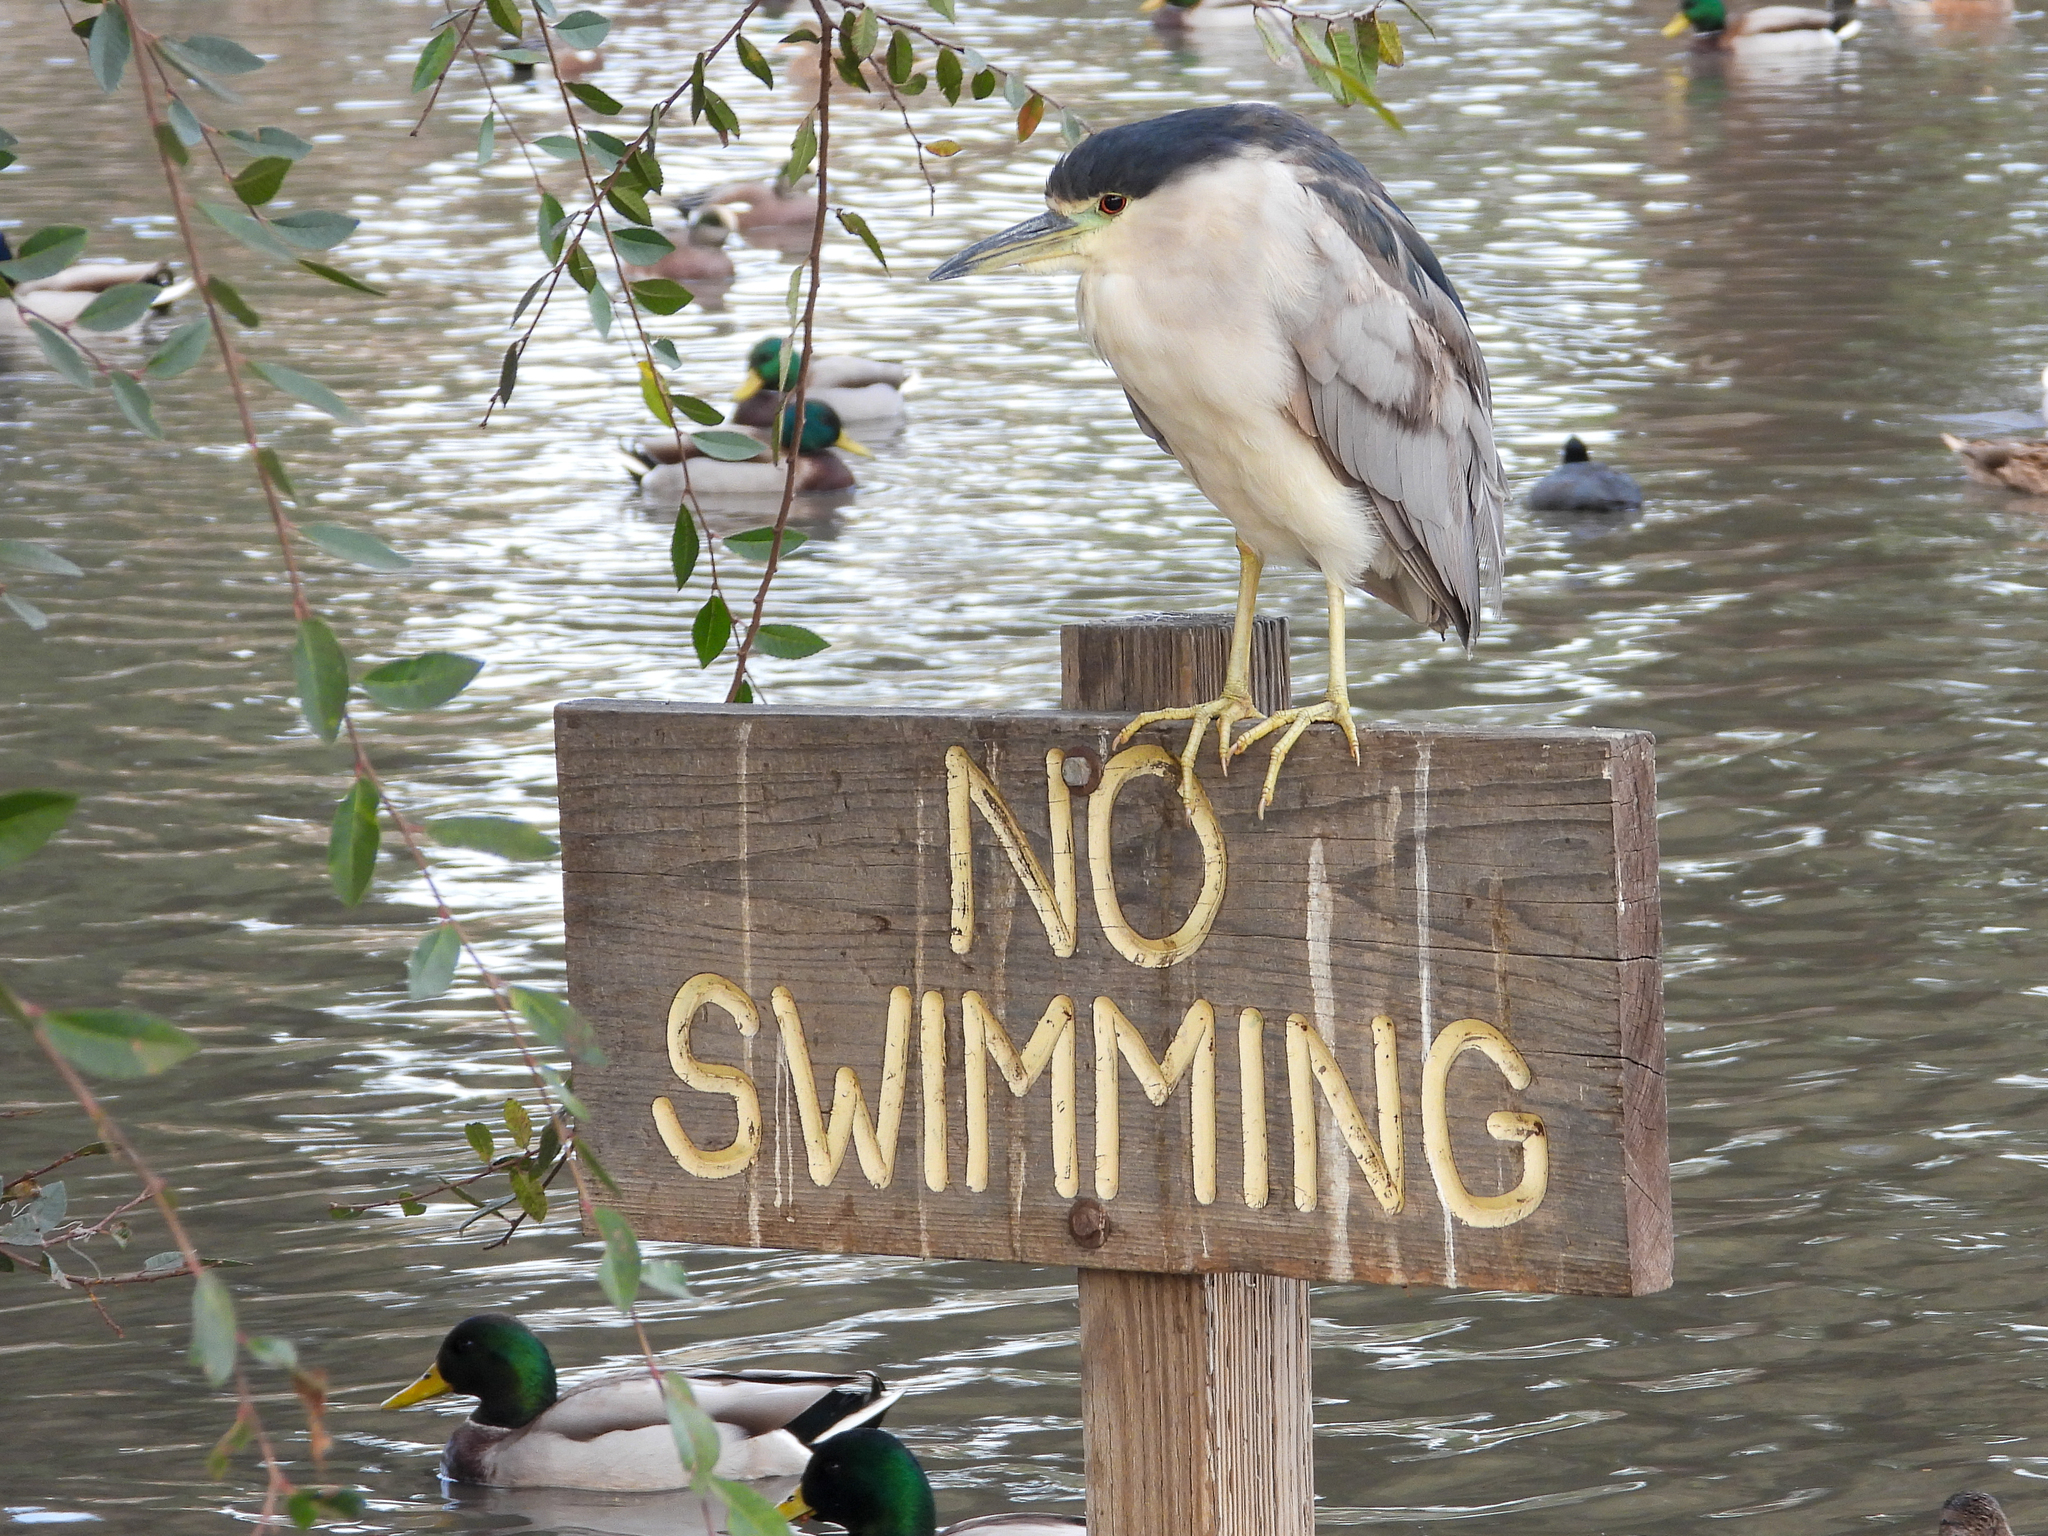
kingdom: Animalia
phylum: Chordata
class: Aves
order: Pelecaniformes
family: Ardeidae
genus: Nycticorax
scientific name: Nycticorax nycticorax
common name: Black-crowned night heron
